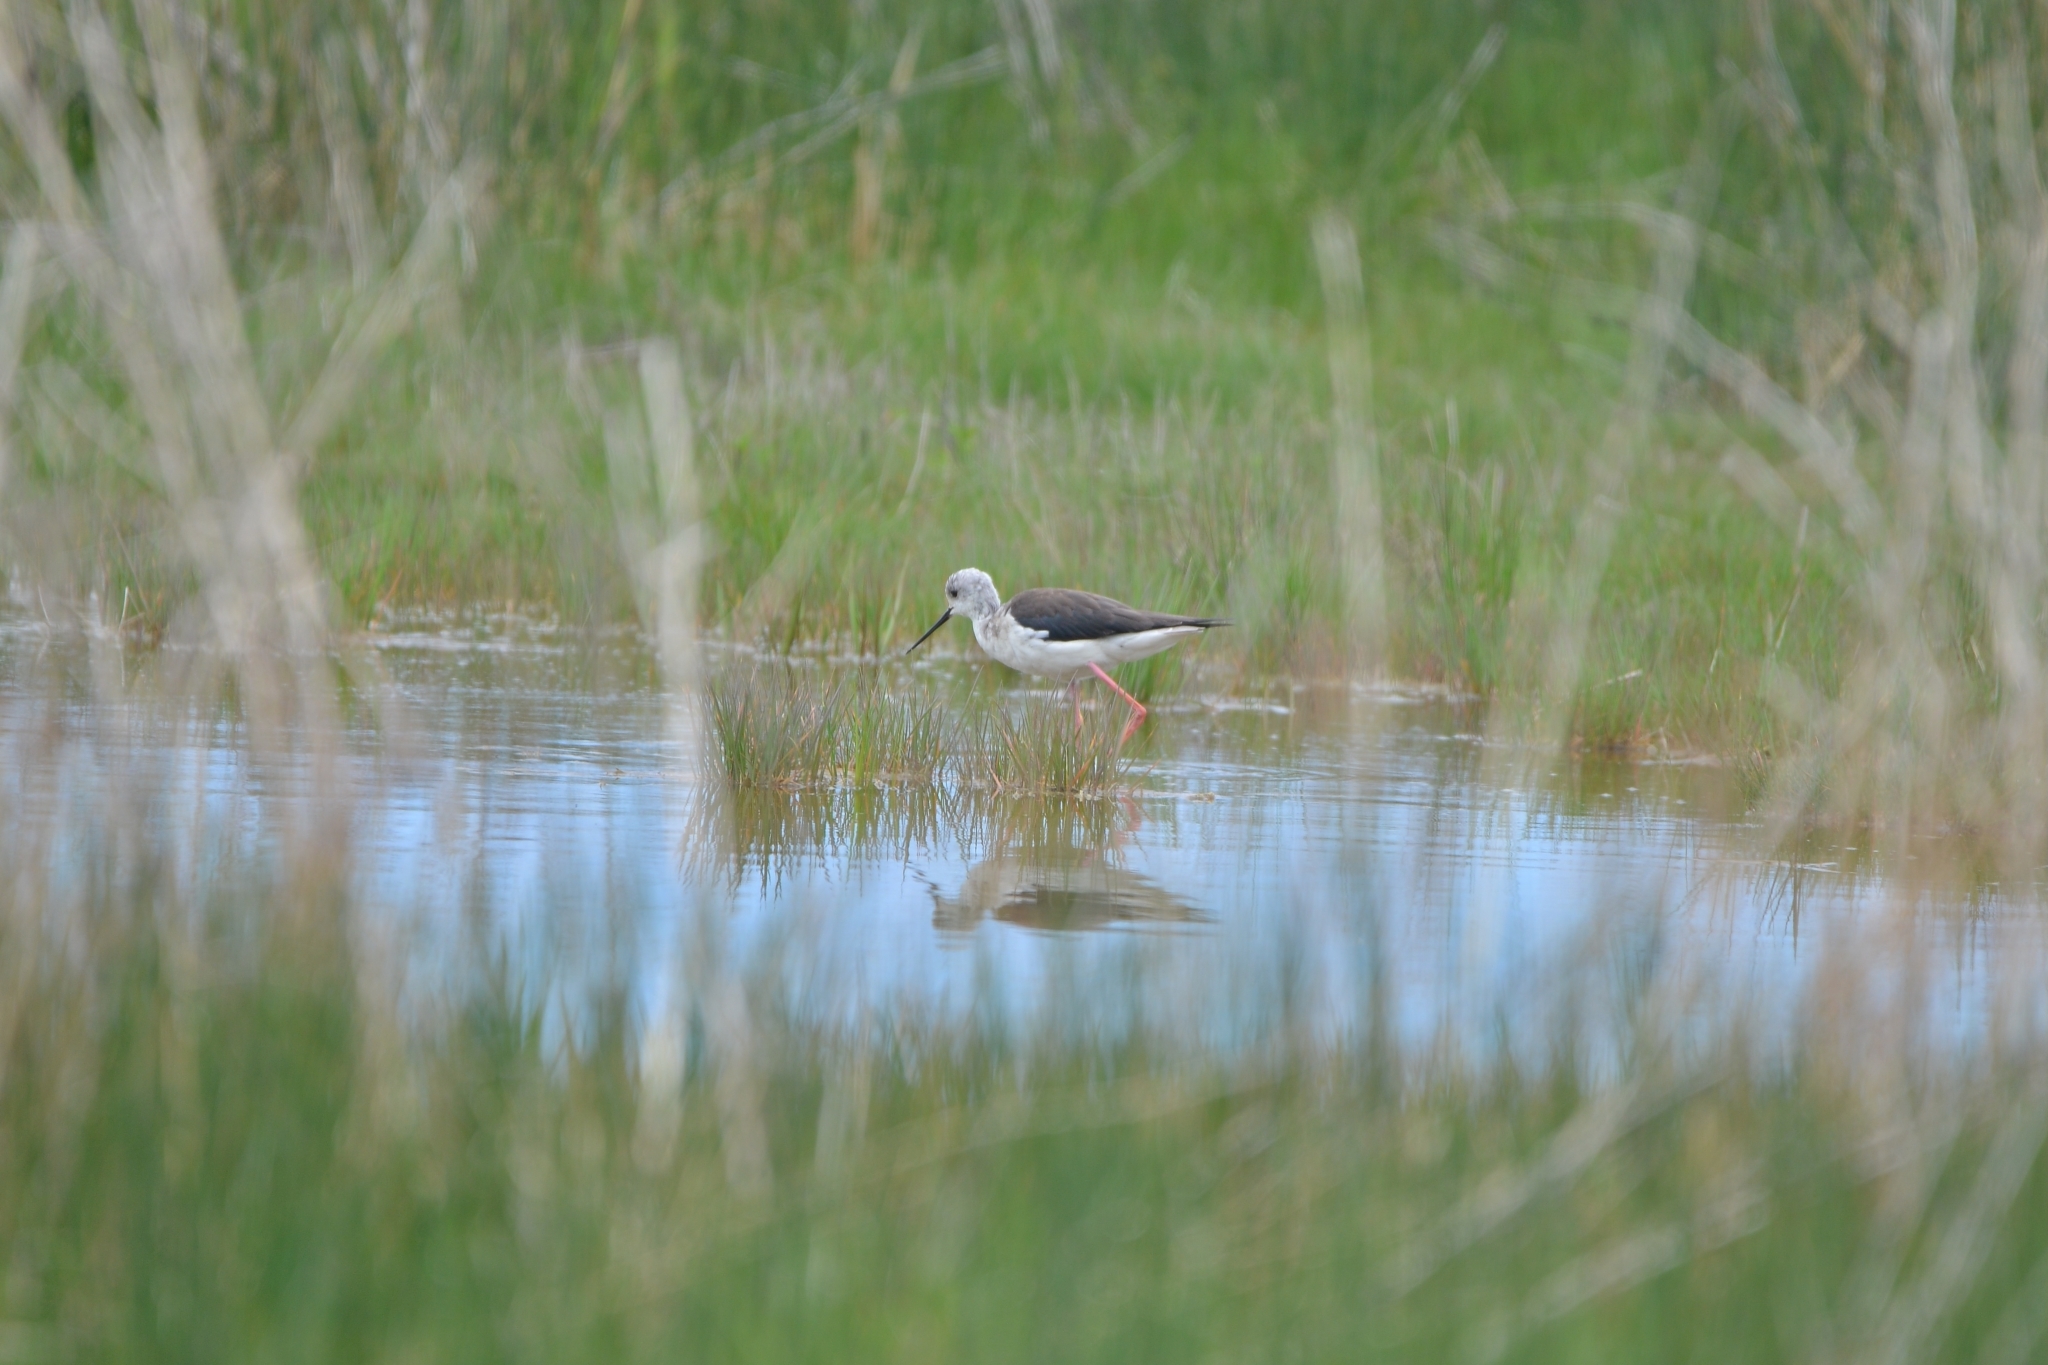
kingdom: Animalia
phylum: Chordata
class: Aves
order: Charadriiformes
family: Recurvirostridae
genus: Himantopus
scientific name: Himantopus himantopus
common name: Black-winged stilt
